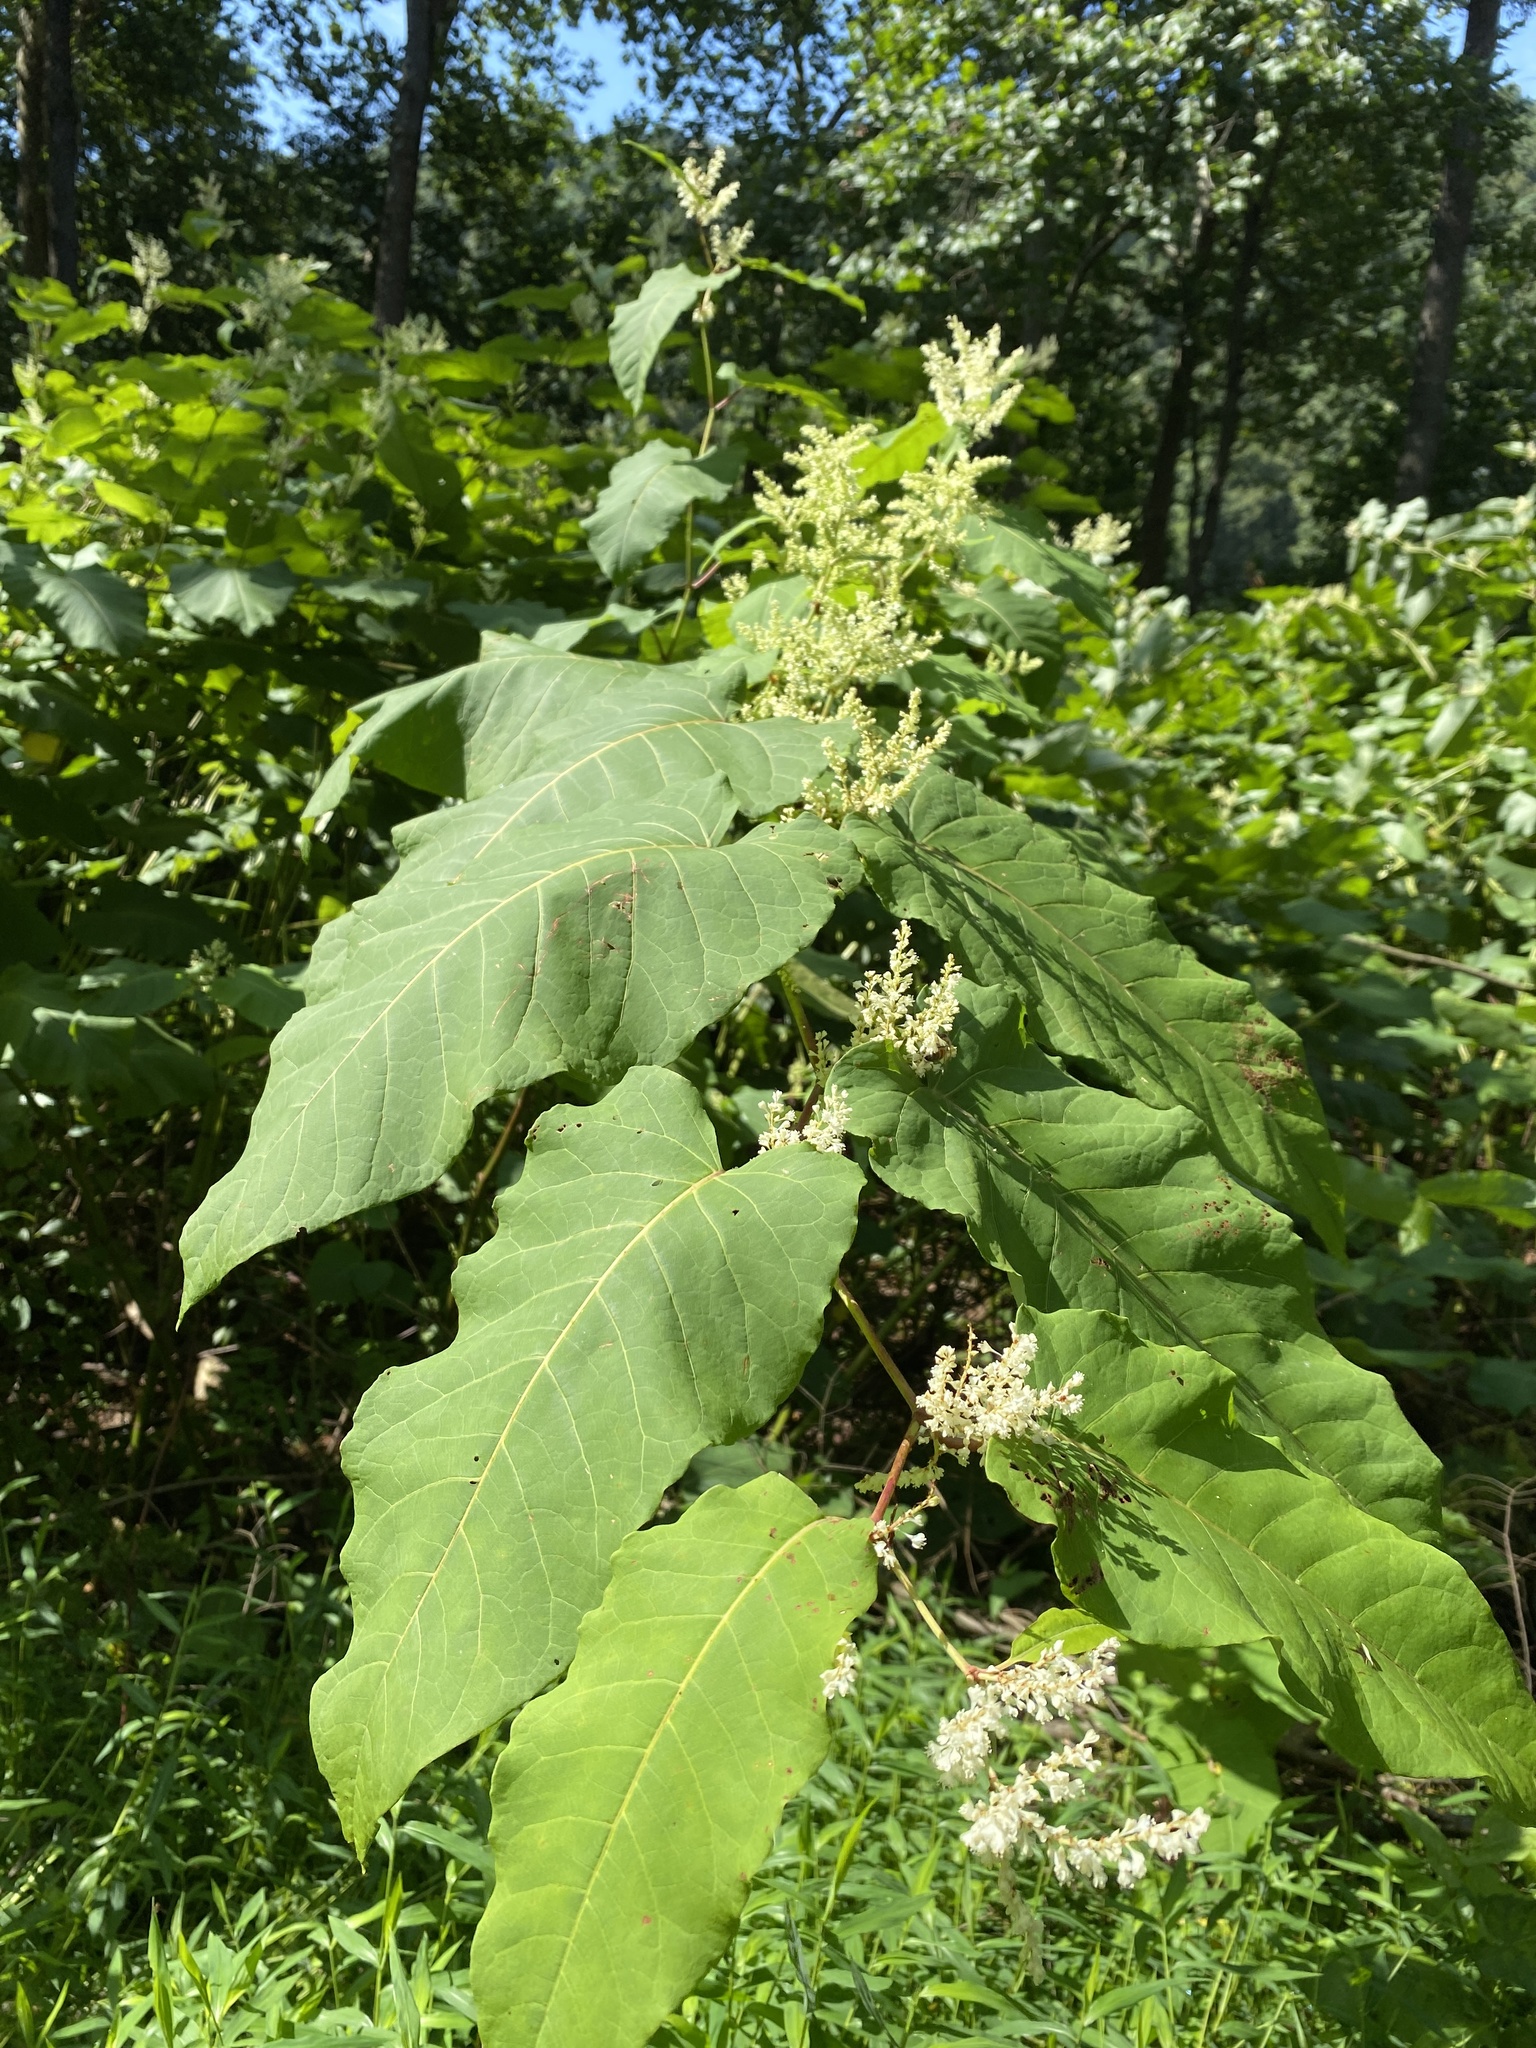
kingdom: Plantae
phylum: Tracheophyta
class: Magnoliopsida
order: Caryophyllales
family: Polygonaceae
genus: Reynoutria
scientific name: Reynoutria sachalinensis
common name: Giant knotweed
